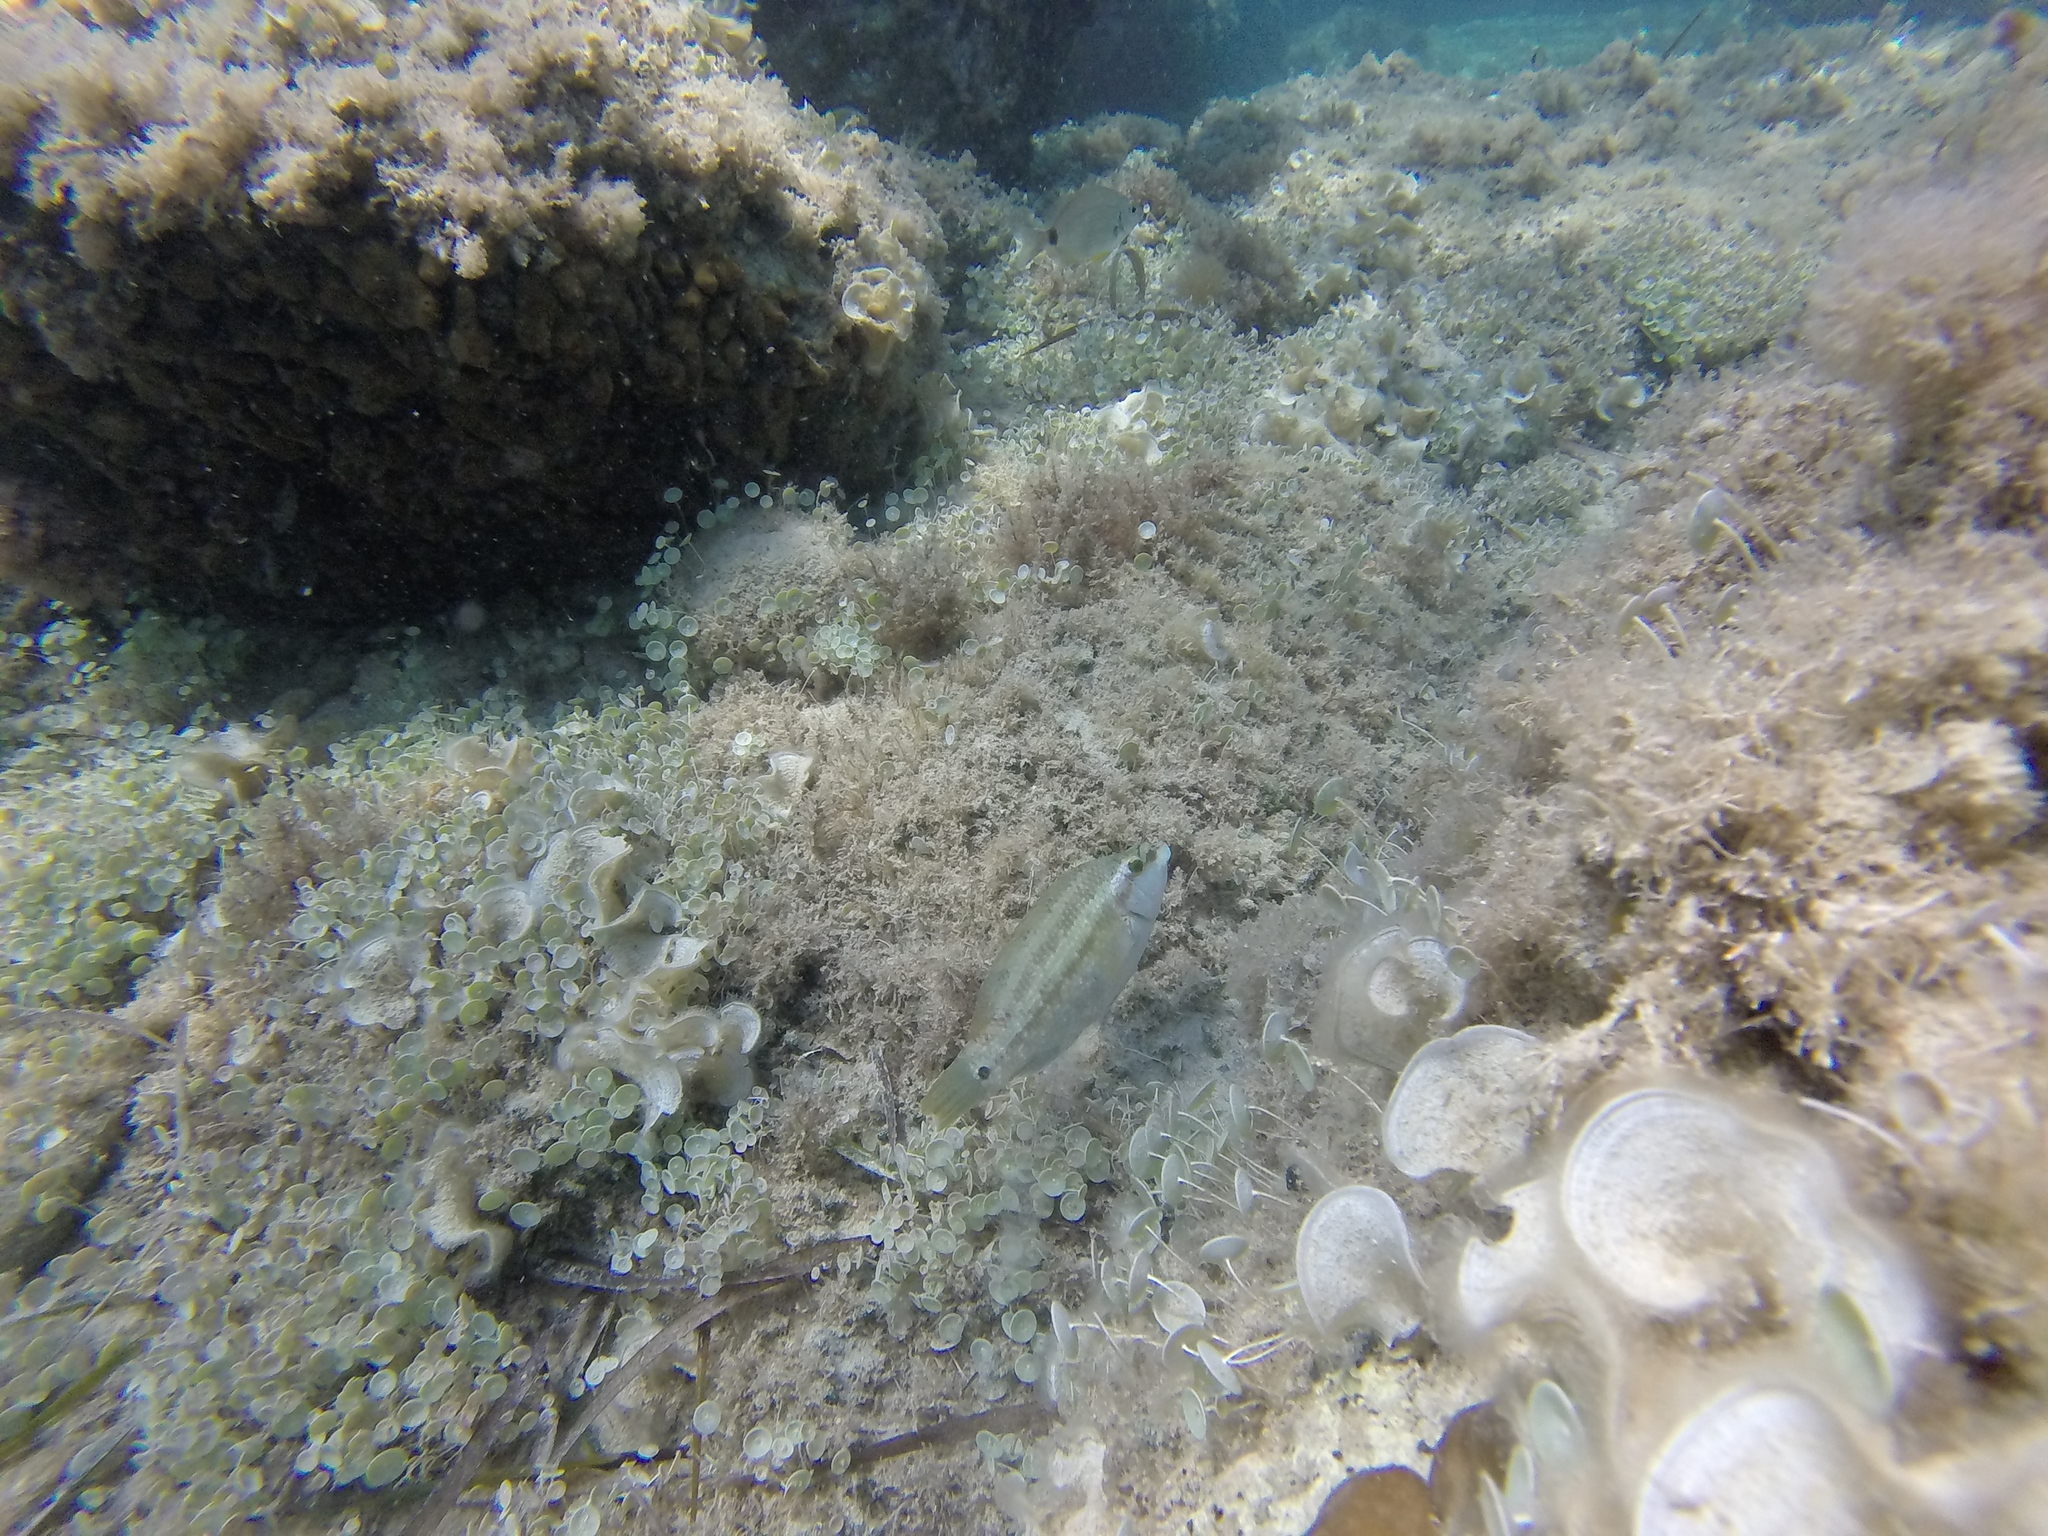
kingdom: Animalia
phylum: Chordata
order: Perciformes
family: Labridae
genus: Symphodus
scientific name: Symphodus tinca
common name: Peacock wrasse
